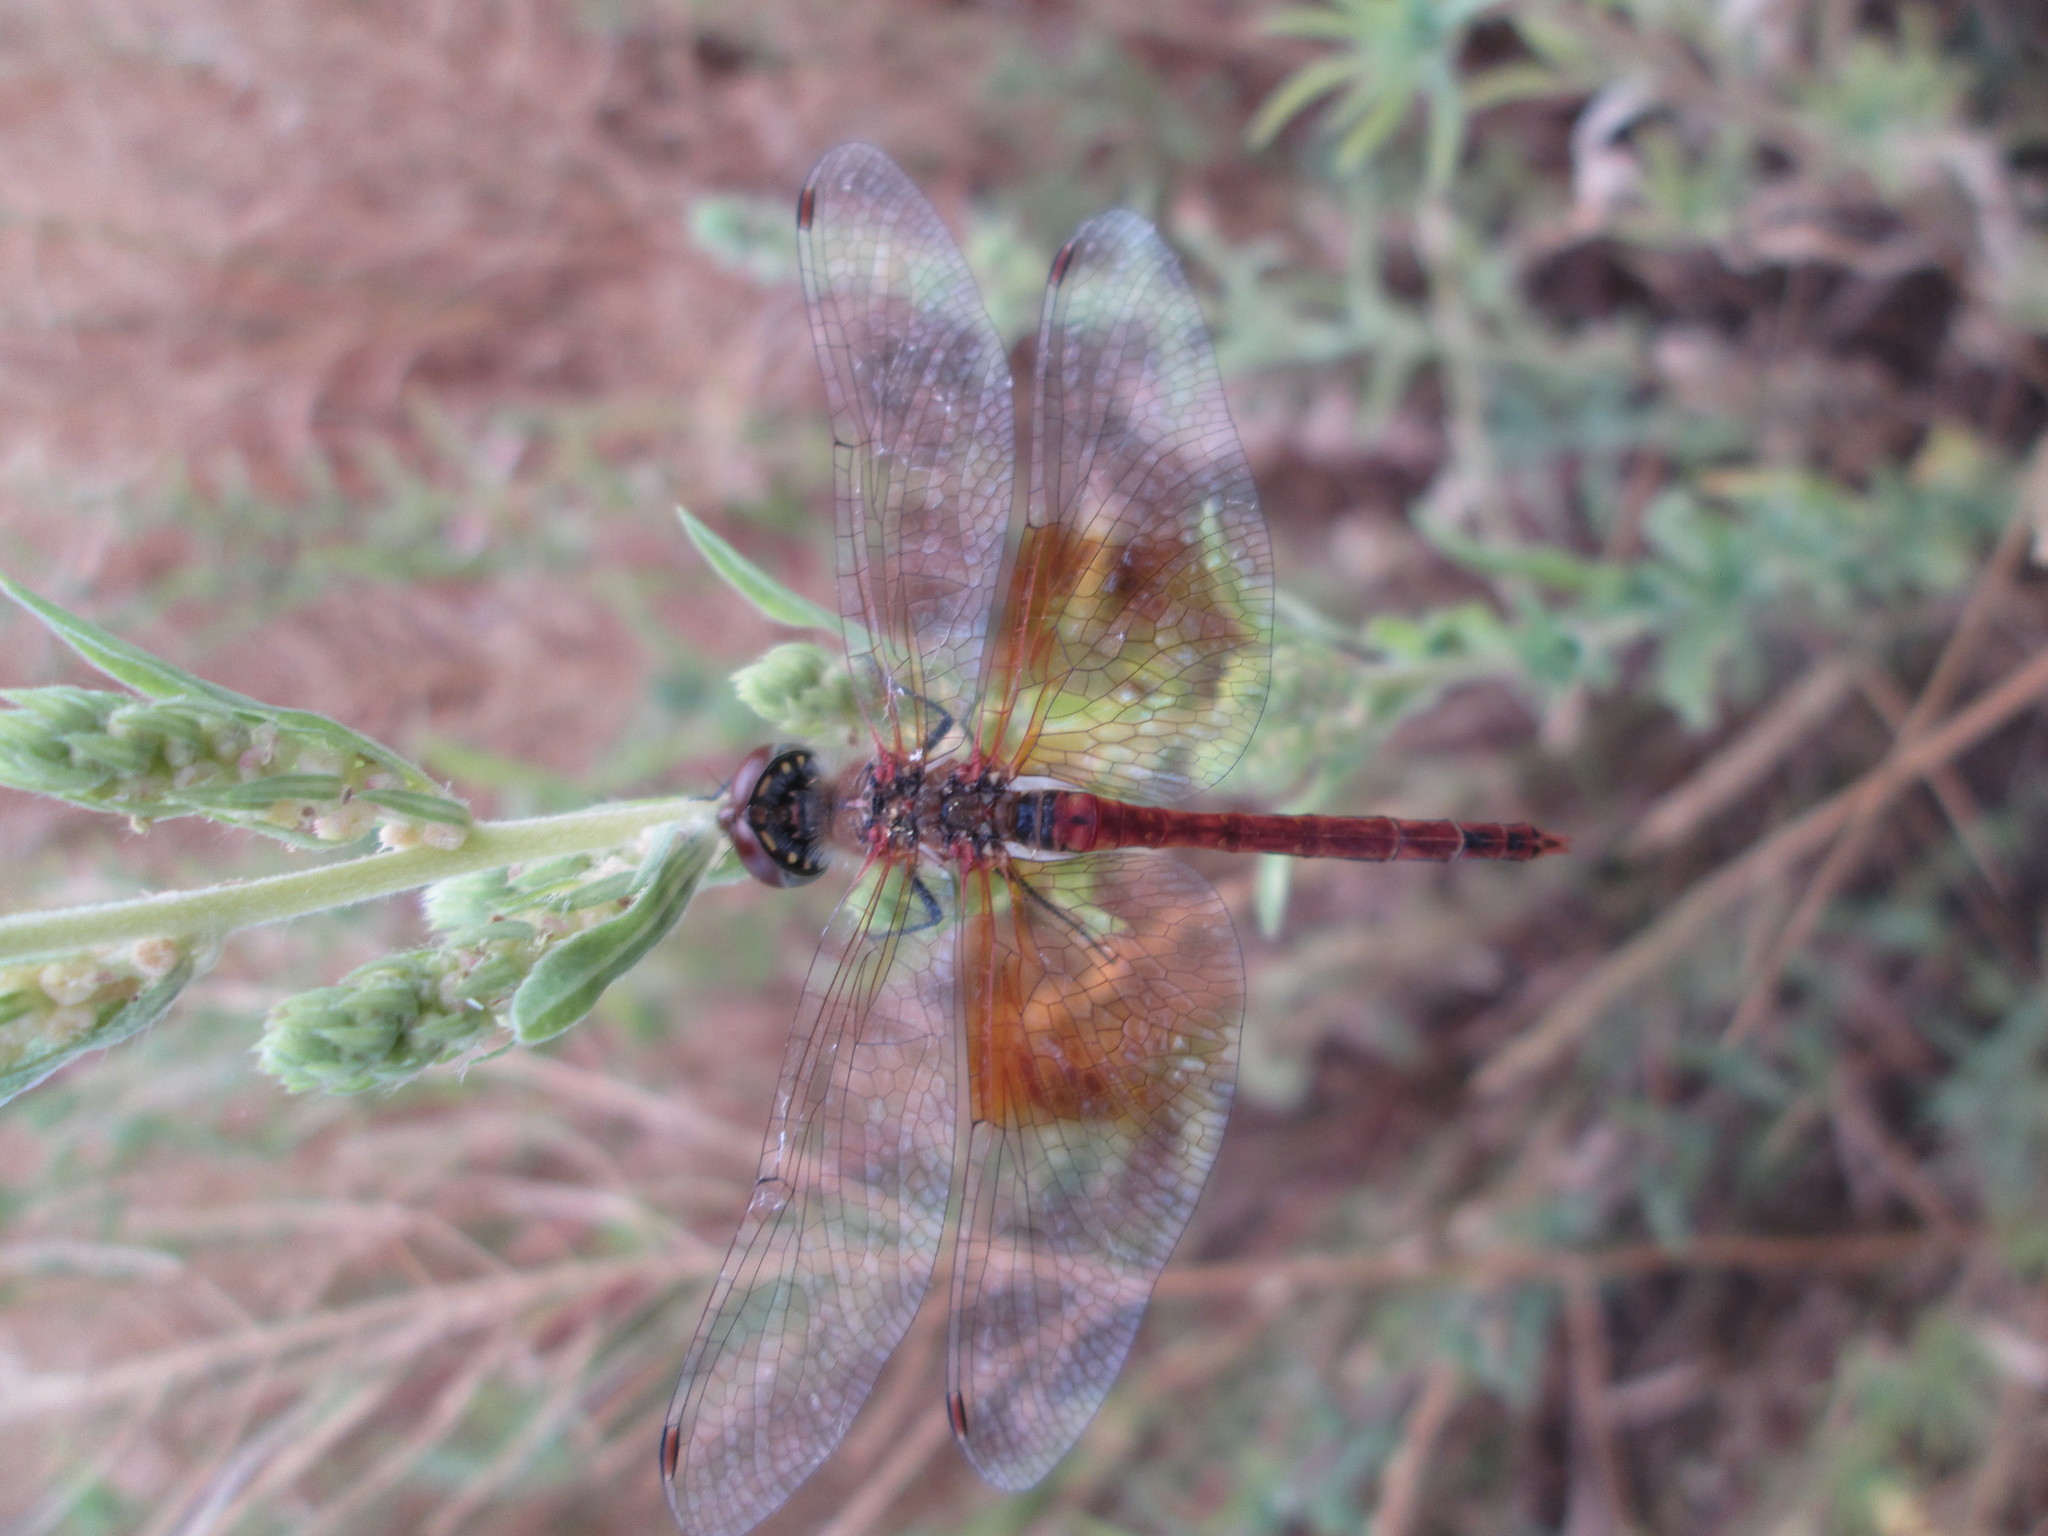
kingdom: Animalia
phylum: Arthropoda
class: Insecta
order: Odonata
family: Libellulidae
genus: Sympetrum
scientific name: Sympetrum semicinctum
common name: Band-winged meadowhawk
